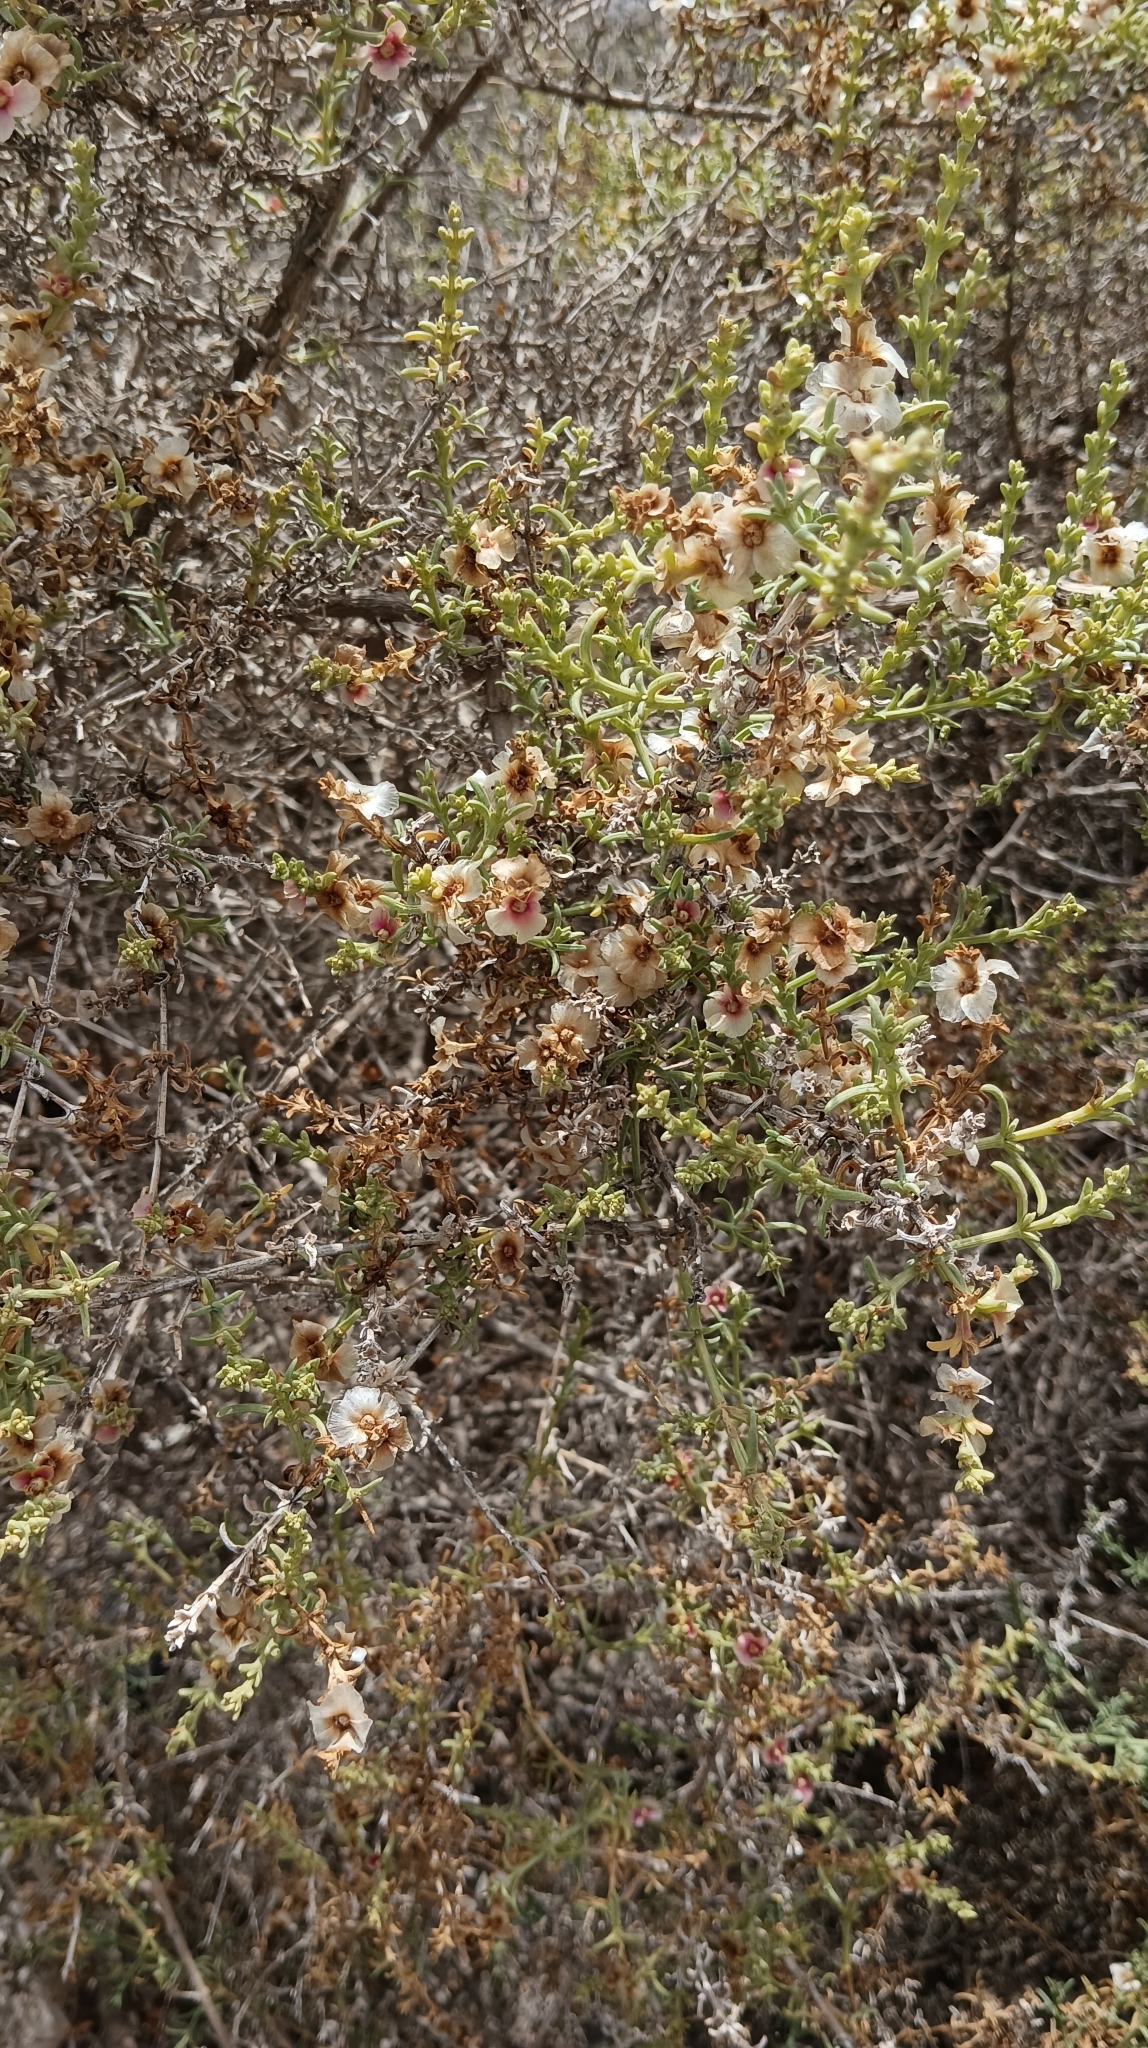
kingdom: Plantae
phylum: Tracheophyta
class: Magnoliopsida
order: Caryophyllales
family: Amaranthaceae
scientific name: Amaranthaceae
